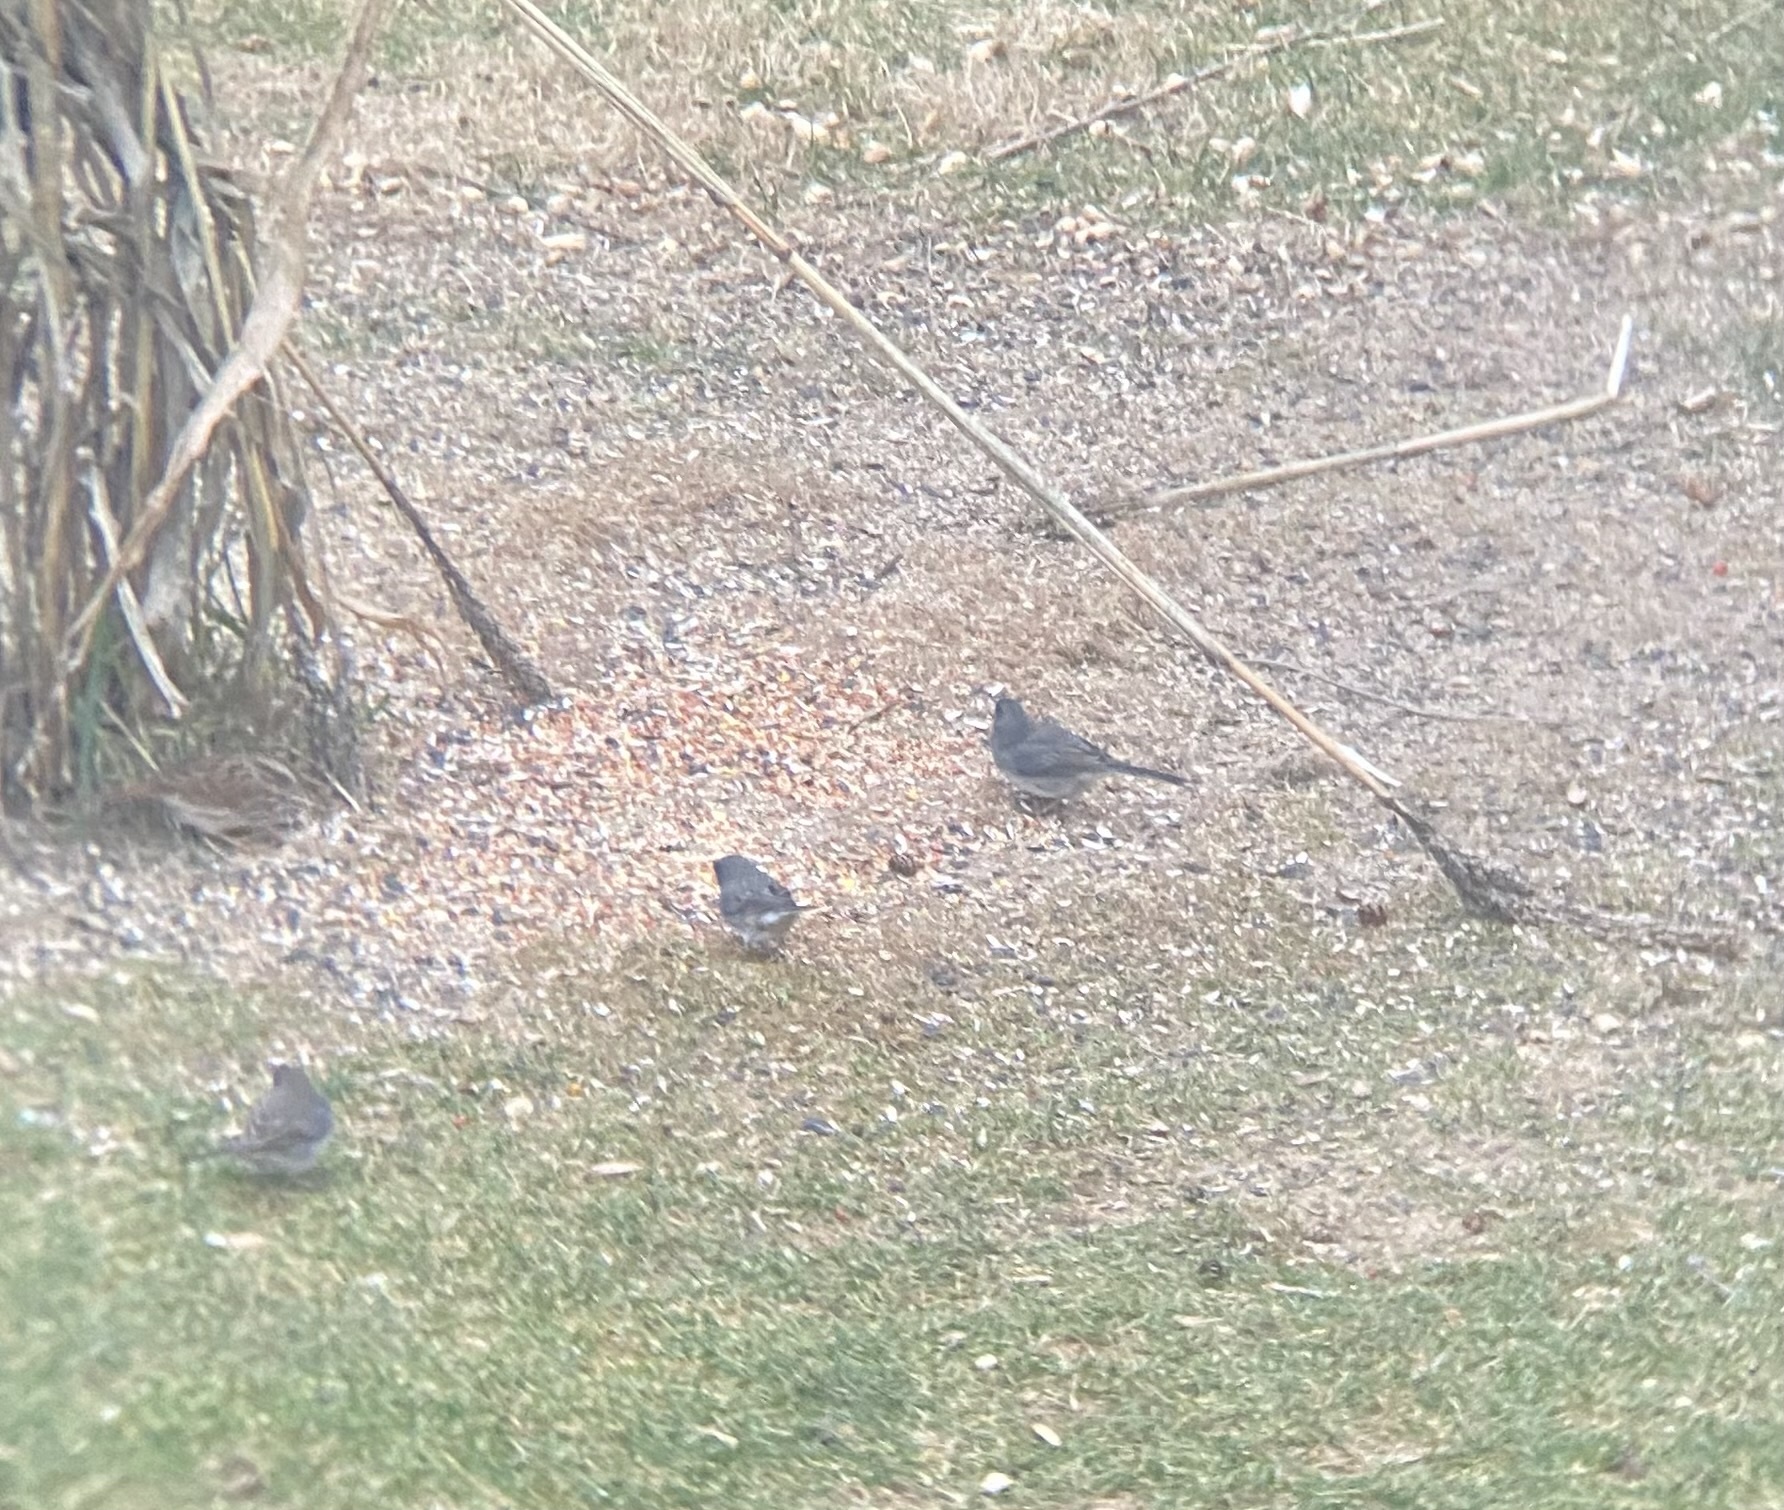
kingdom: Animalia
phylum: Chordata
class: Aves
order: Passeriformes
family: Passerellidae
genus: Junco
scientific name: Junco hyemalis
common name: Dark-eyed junco
